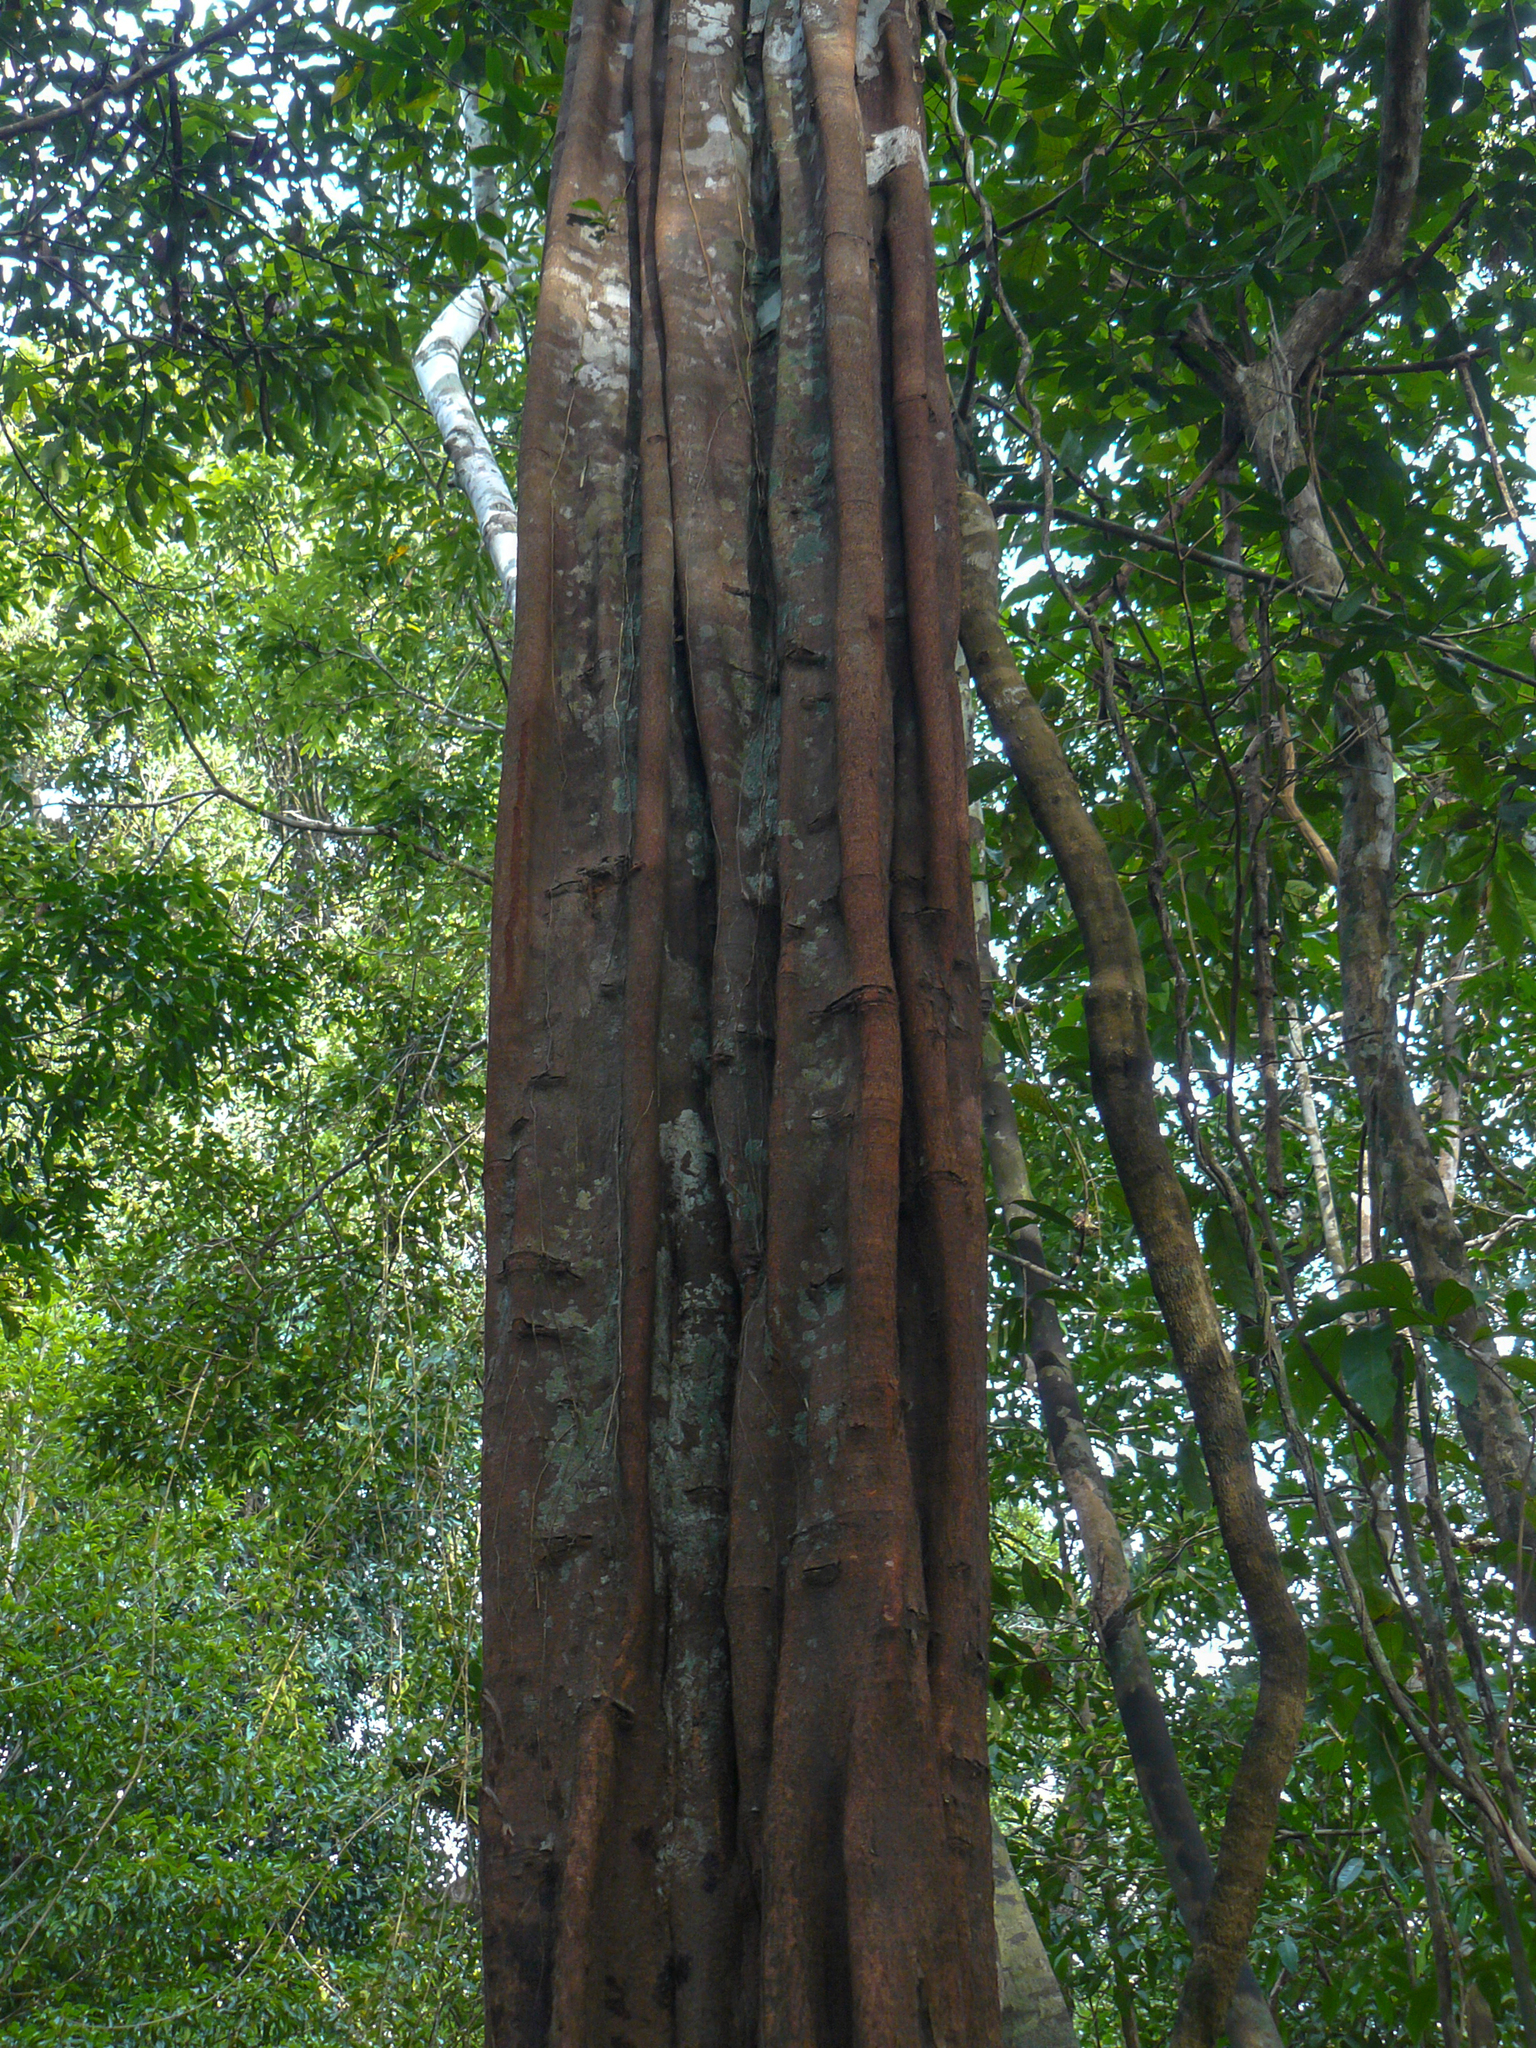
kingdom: Plantae
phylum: Tracheophyta
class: Magnoliopsida
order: Gentianales
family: Apocynaceae
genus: Aspidosperma
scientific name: Aspidosperma carapanauba
